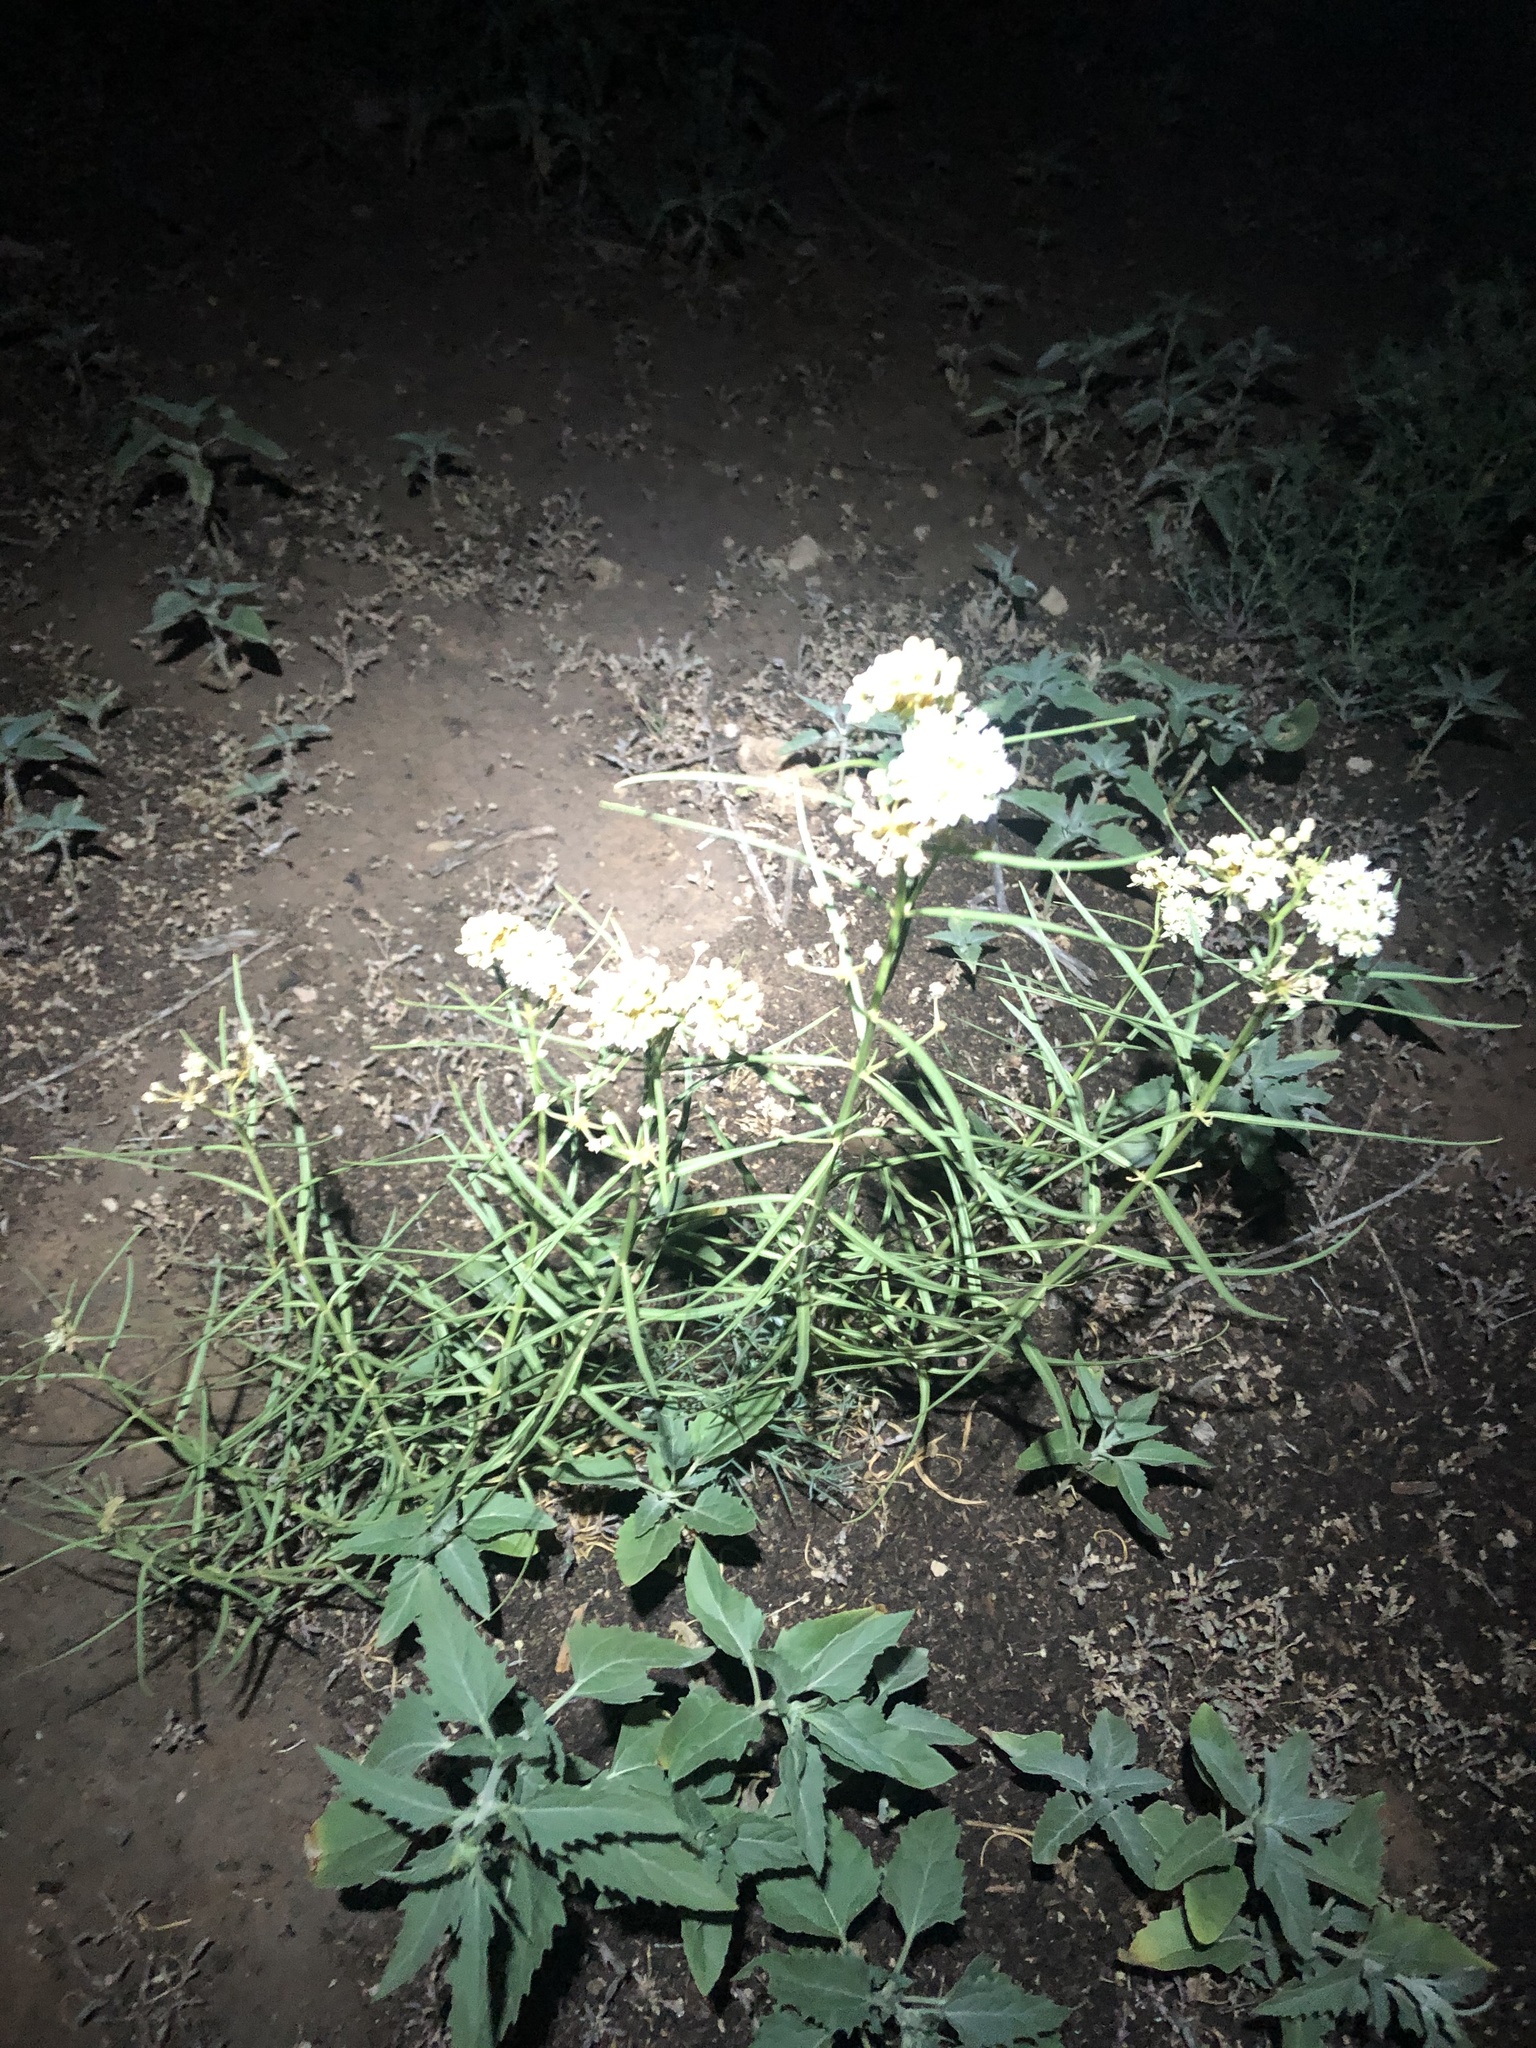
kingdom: Plantae
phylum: Tracheophyta
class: Magnoliopsida
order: Gentianales
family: Apocynaceae
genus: Asclepias
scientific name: Asclepias subverticillata
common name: Horsetail milkweed
